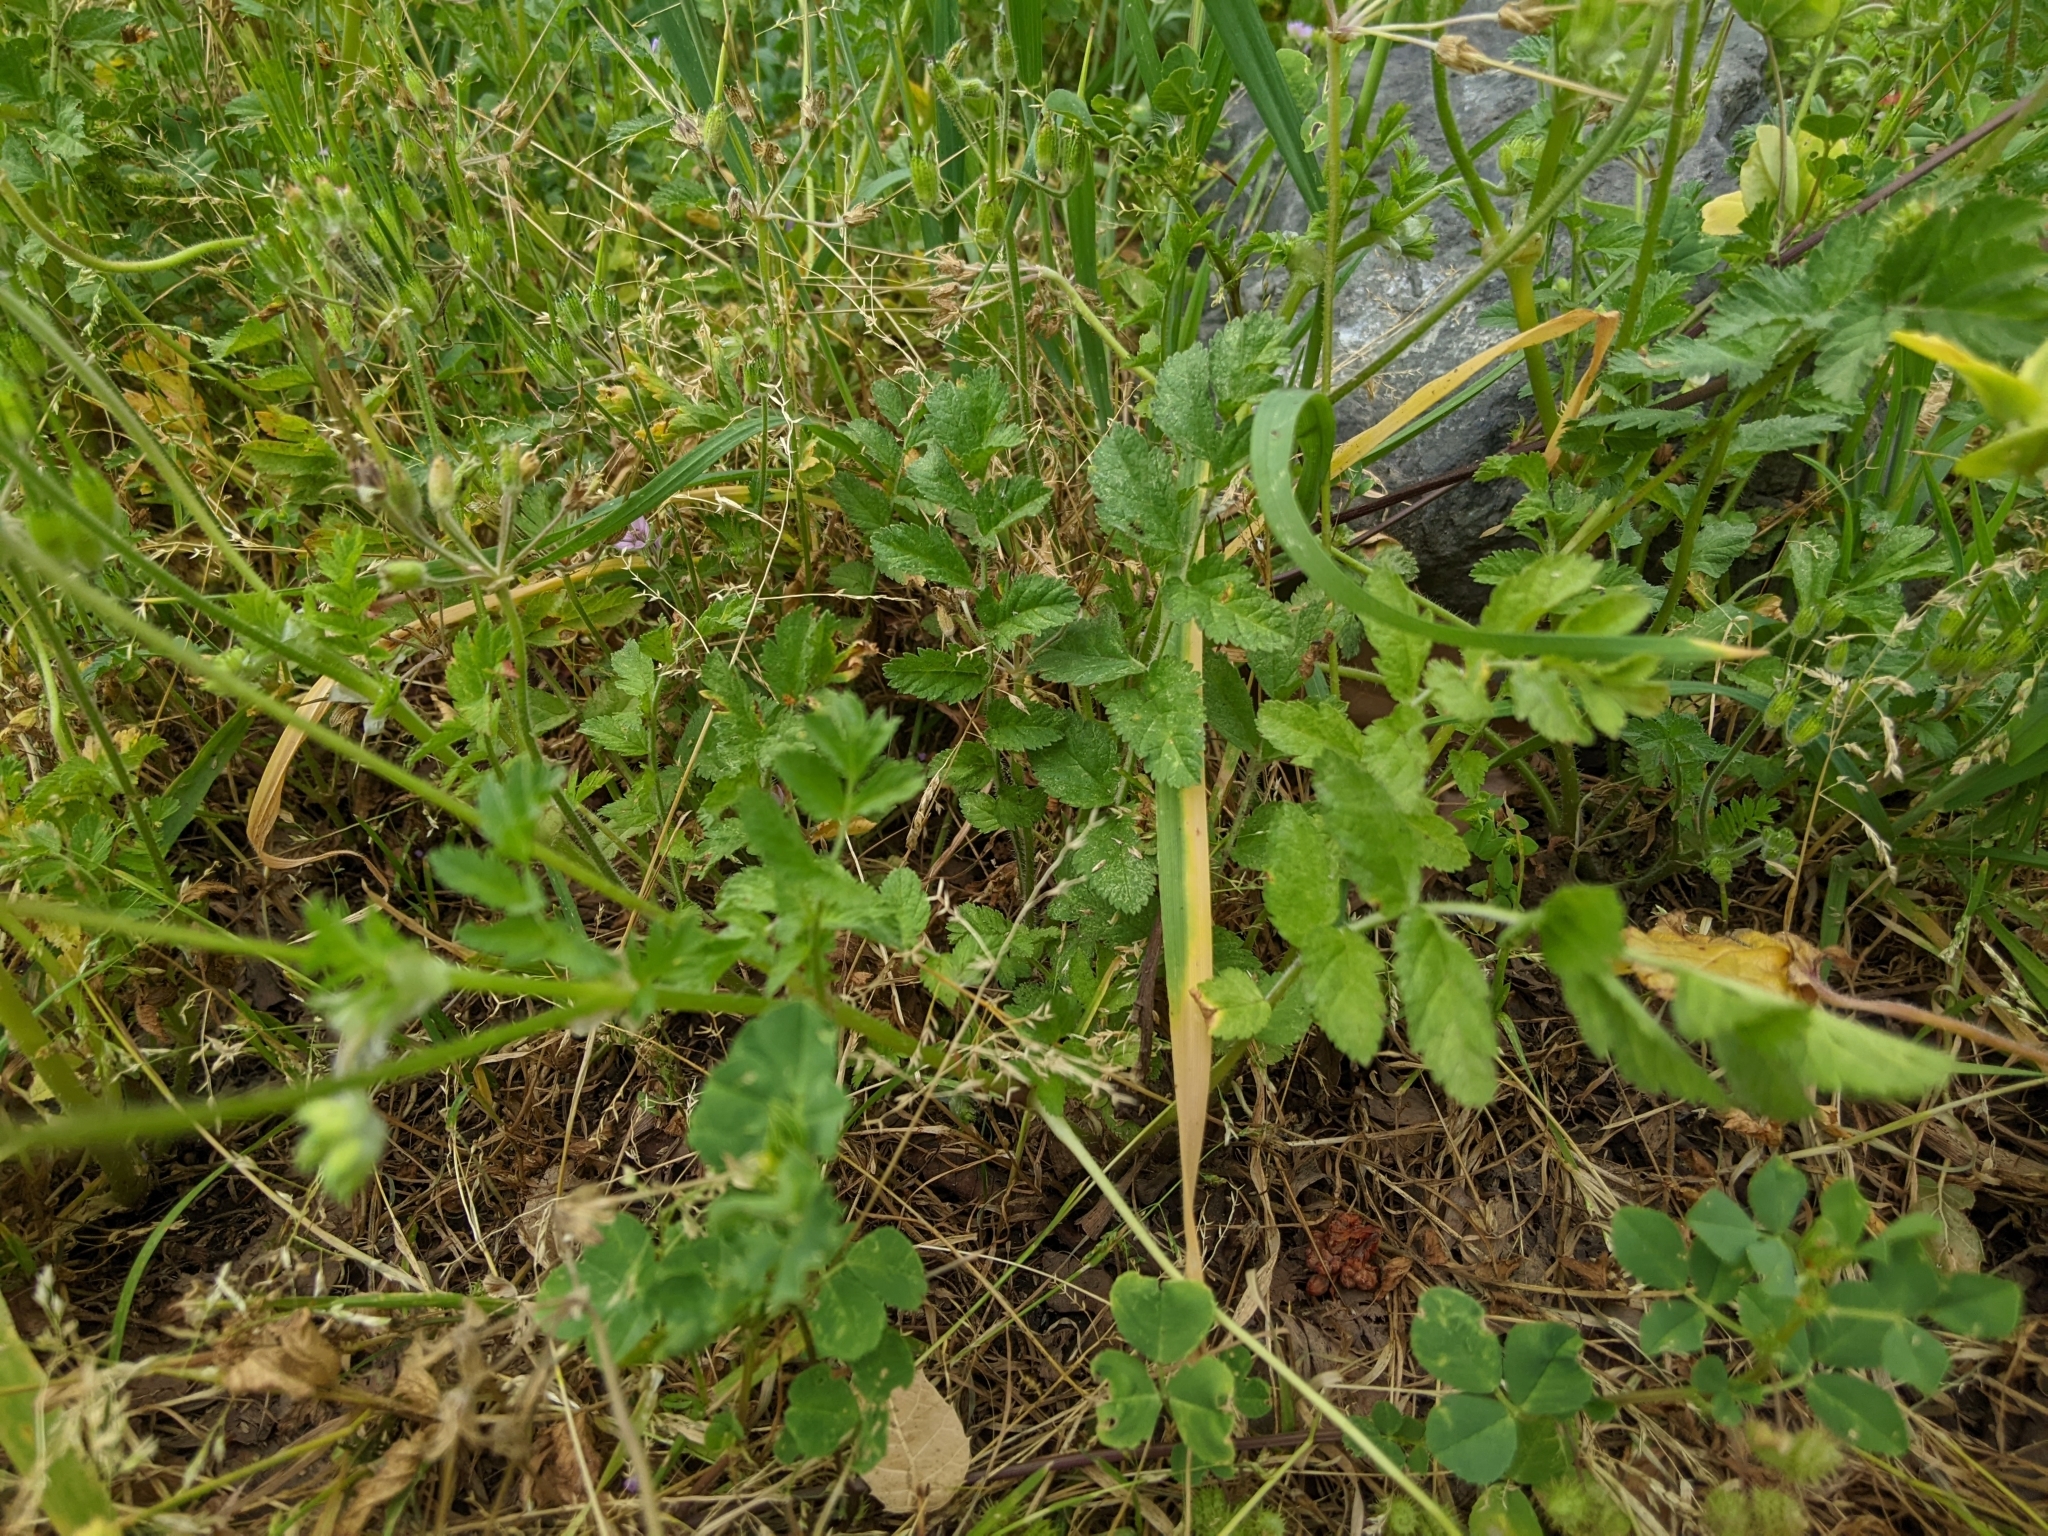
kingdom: Plantae
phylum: Tracheophyta
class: Magnoliopsida
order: Geraniales
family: Geraniaceae
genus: Erodium
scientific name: Erodium moschatum
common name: Musk stork's-bill
